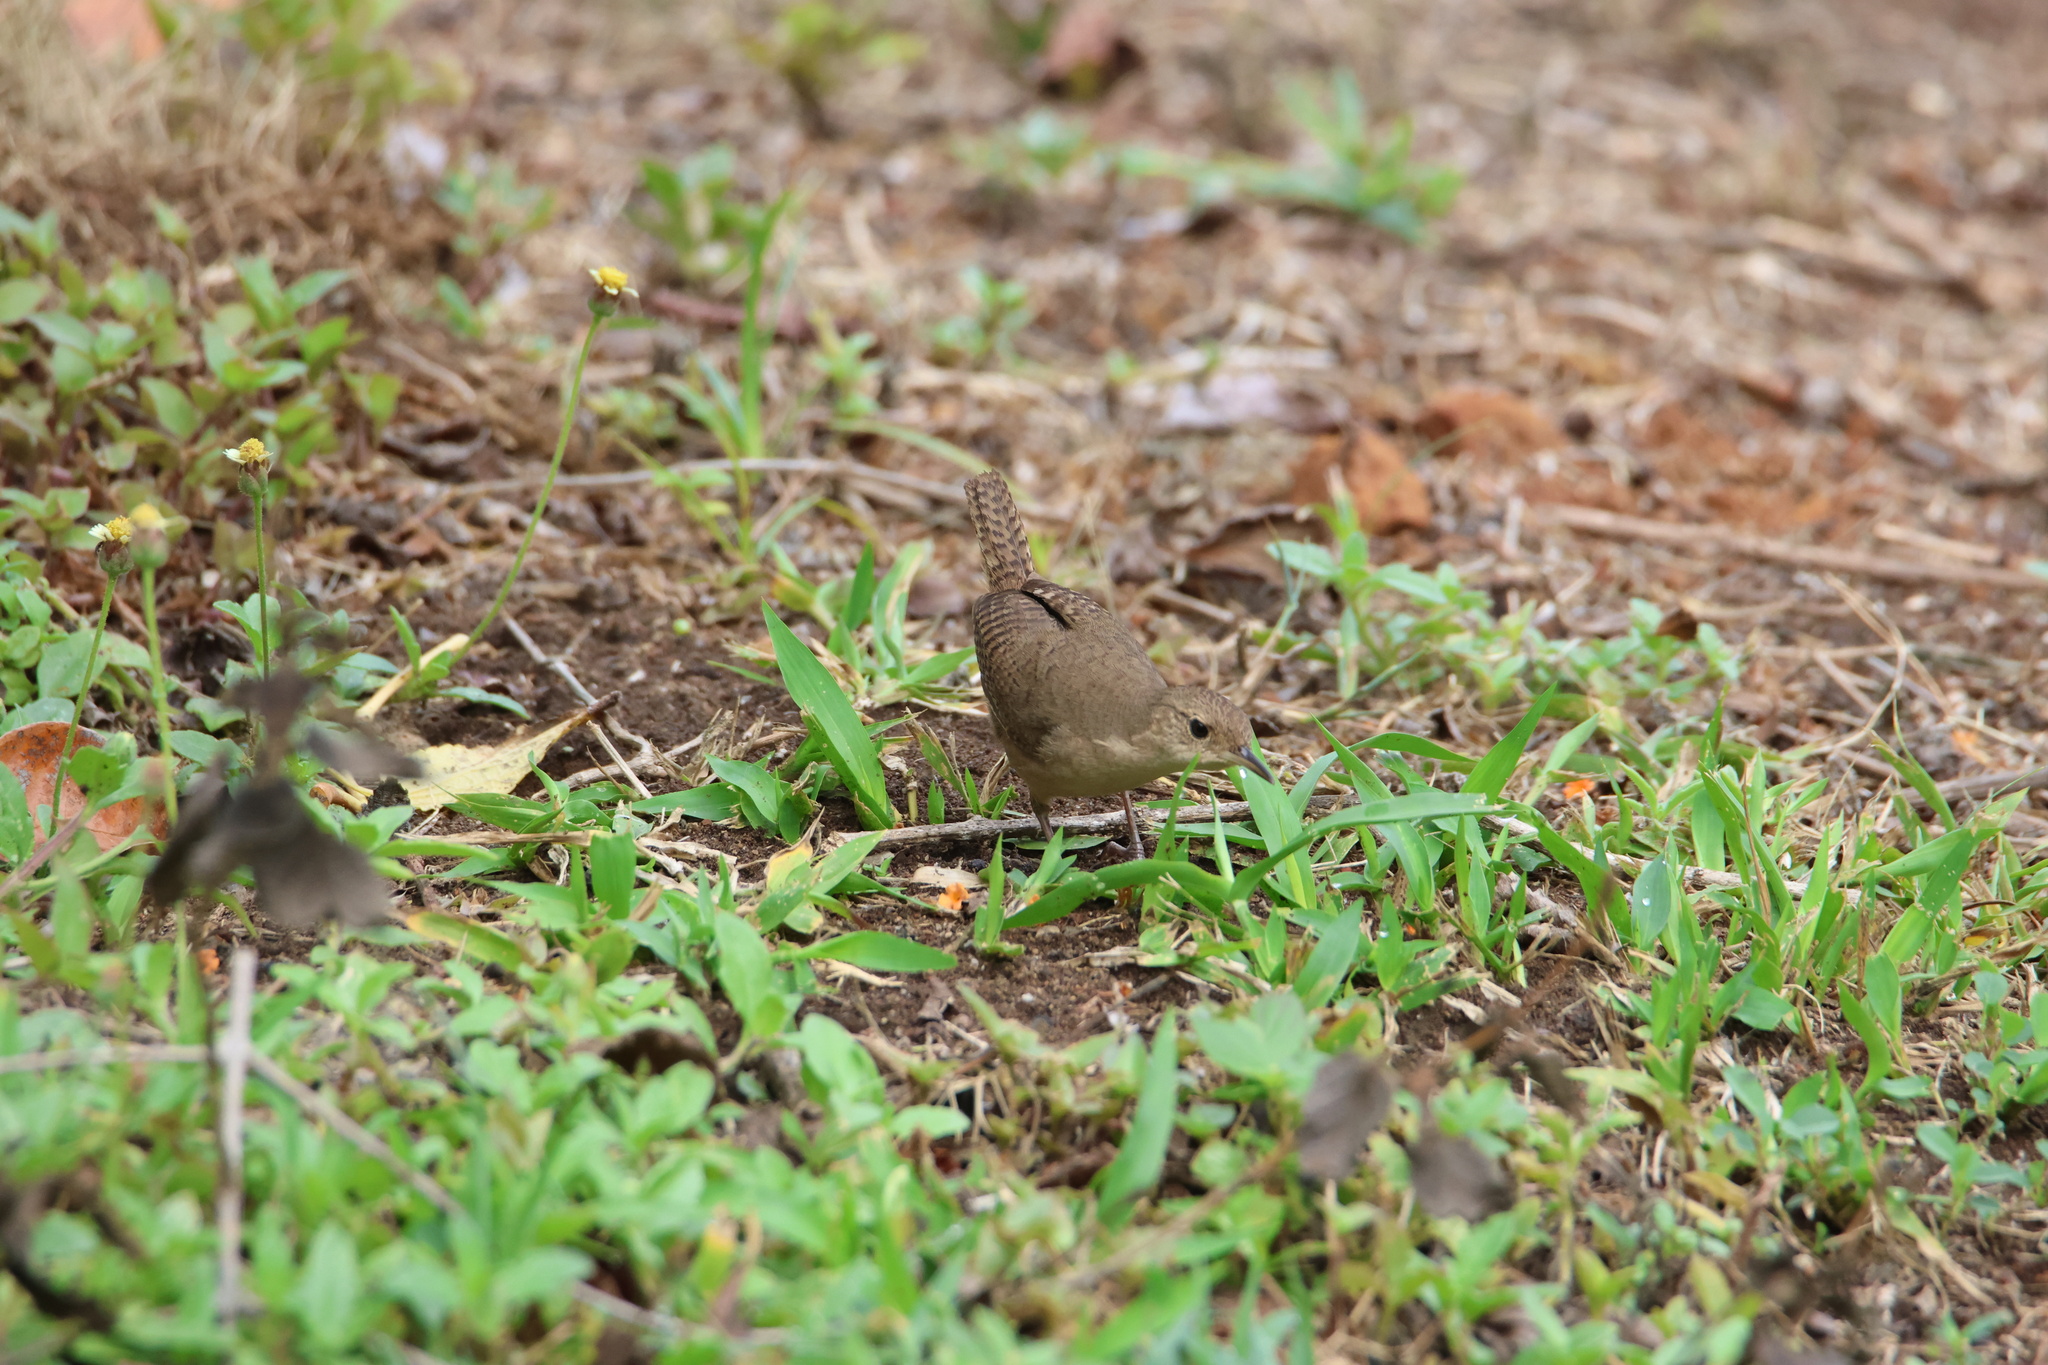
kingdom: Animalia
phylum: Chordata
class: Aves
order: Passeriformes
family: Troglodytidae
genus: Troglodytes
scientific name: Troglodytes aedon
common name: House wren
